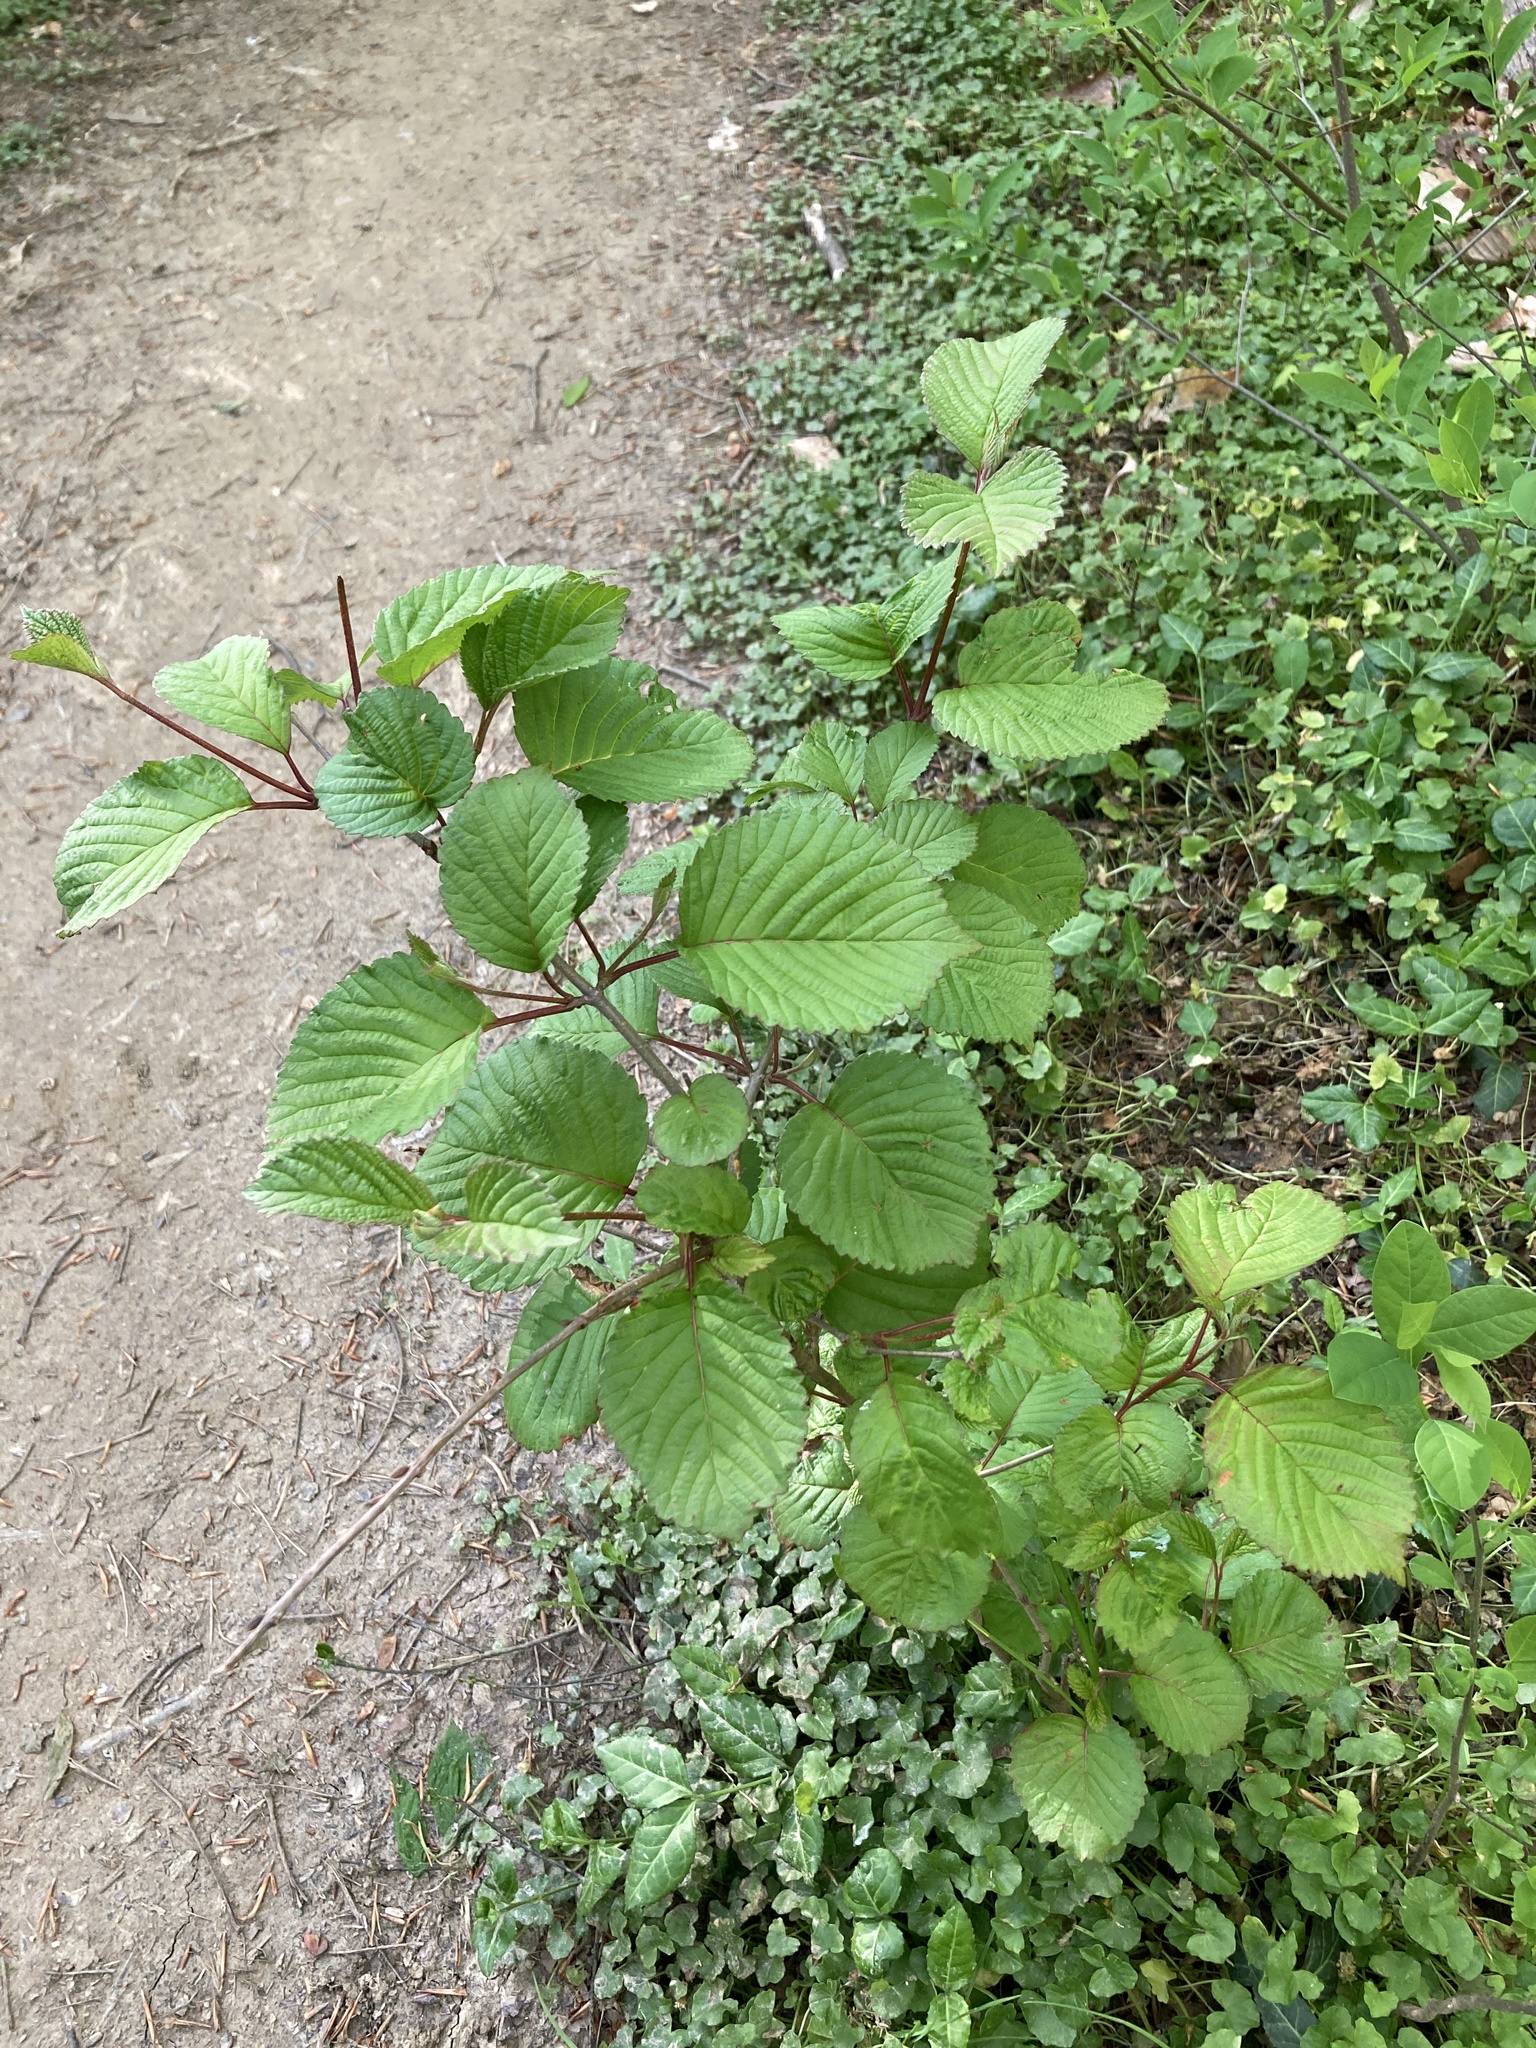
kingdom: Plantae
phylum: Tracheophyta
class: Magnoliopsida
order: Dipsacales
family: Viburnaceae
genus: Viburnum
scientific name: Viburnum plicatum
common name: Japanese snowball
